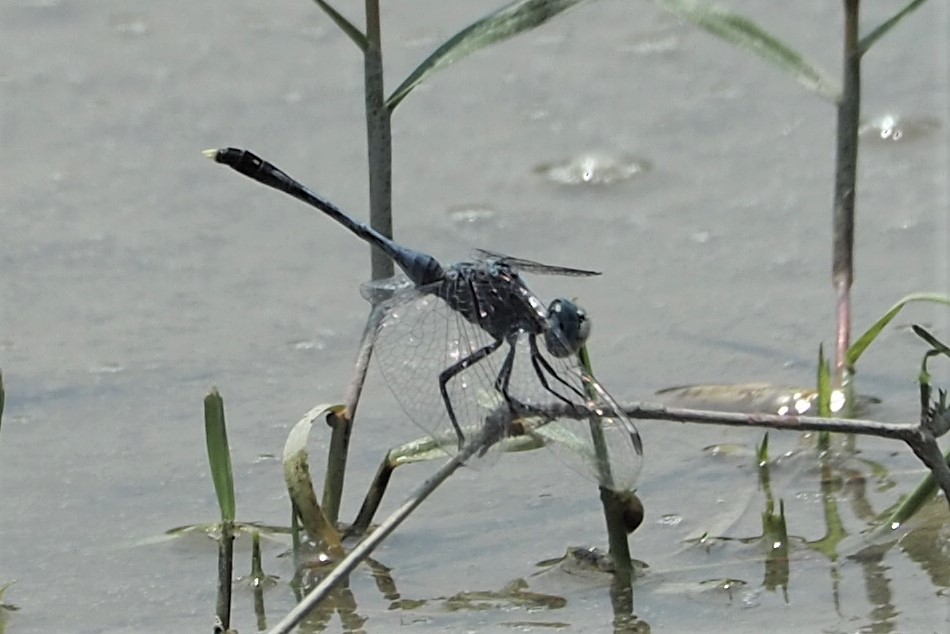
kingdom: Animalia
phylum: Arthropoda
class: Insecta
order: Odonata
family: Libellulidae
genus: Diplacodes
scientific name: Diplacodes trivialis
